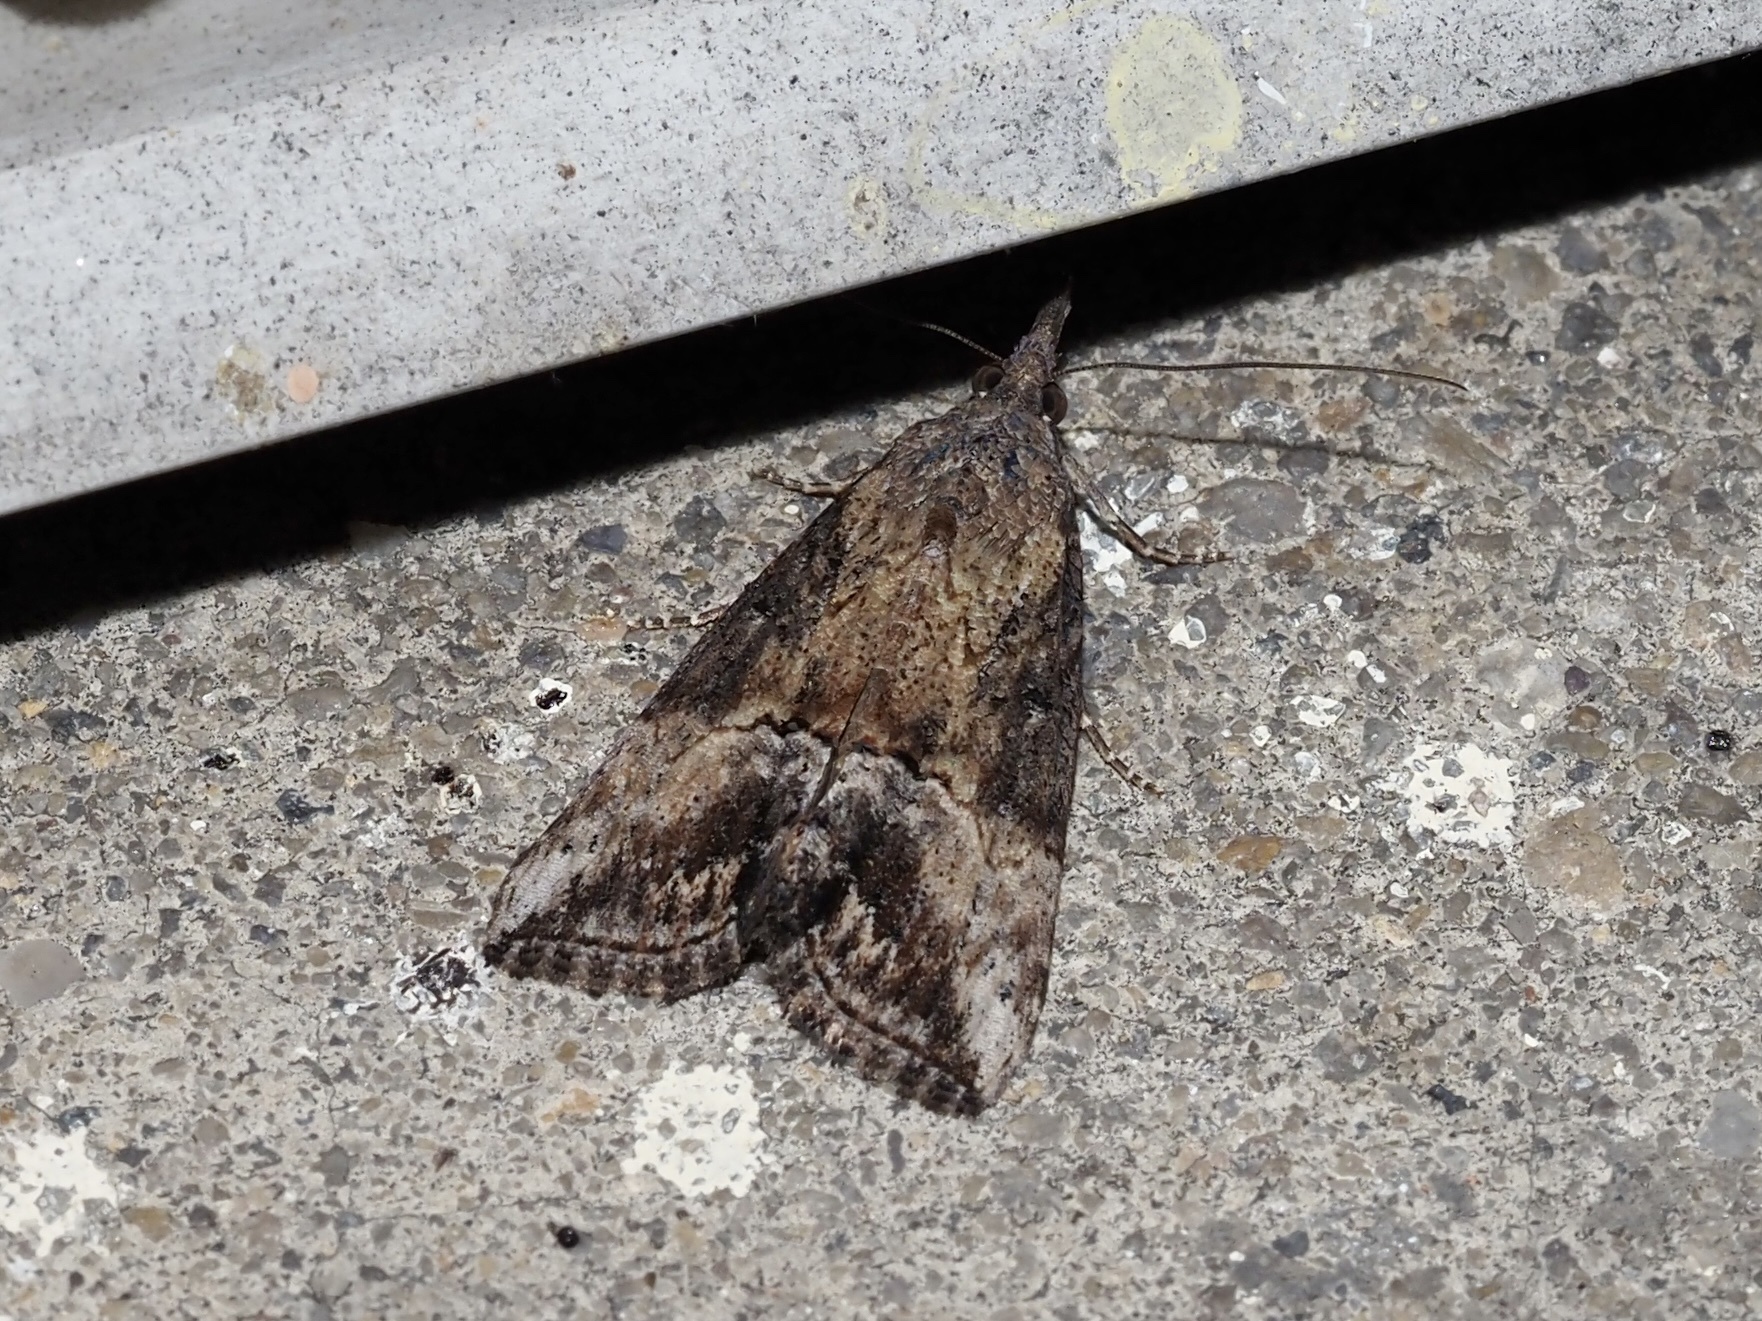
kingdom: Animalia
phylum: Arthropoda
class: Insecta
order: Lepidoptera
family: Erebidae
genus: Hypena
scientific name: Hypena scabra
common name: Green cloverworm
